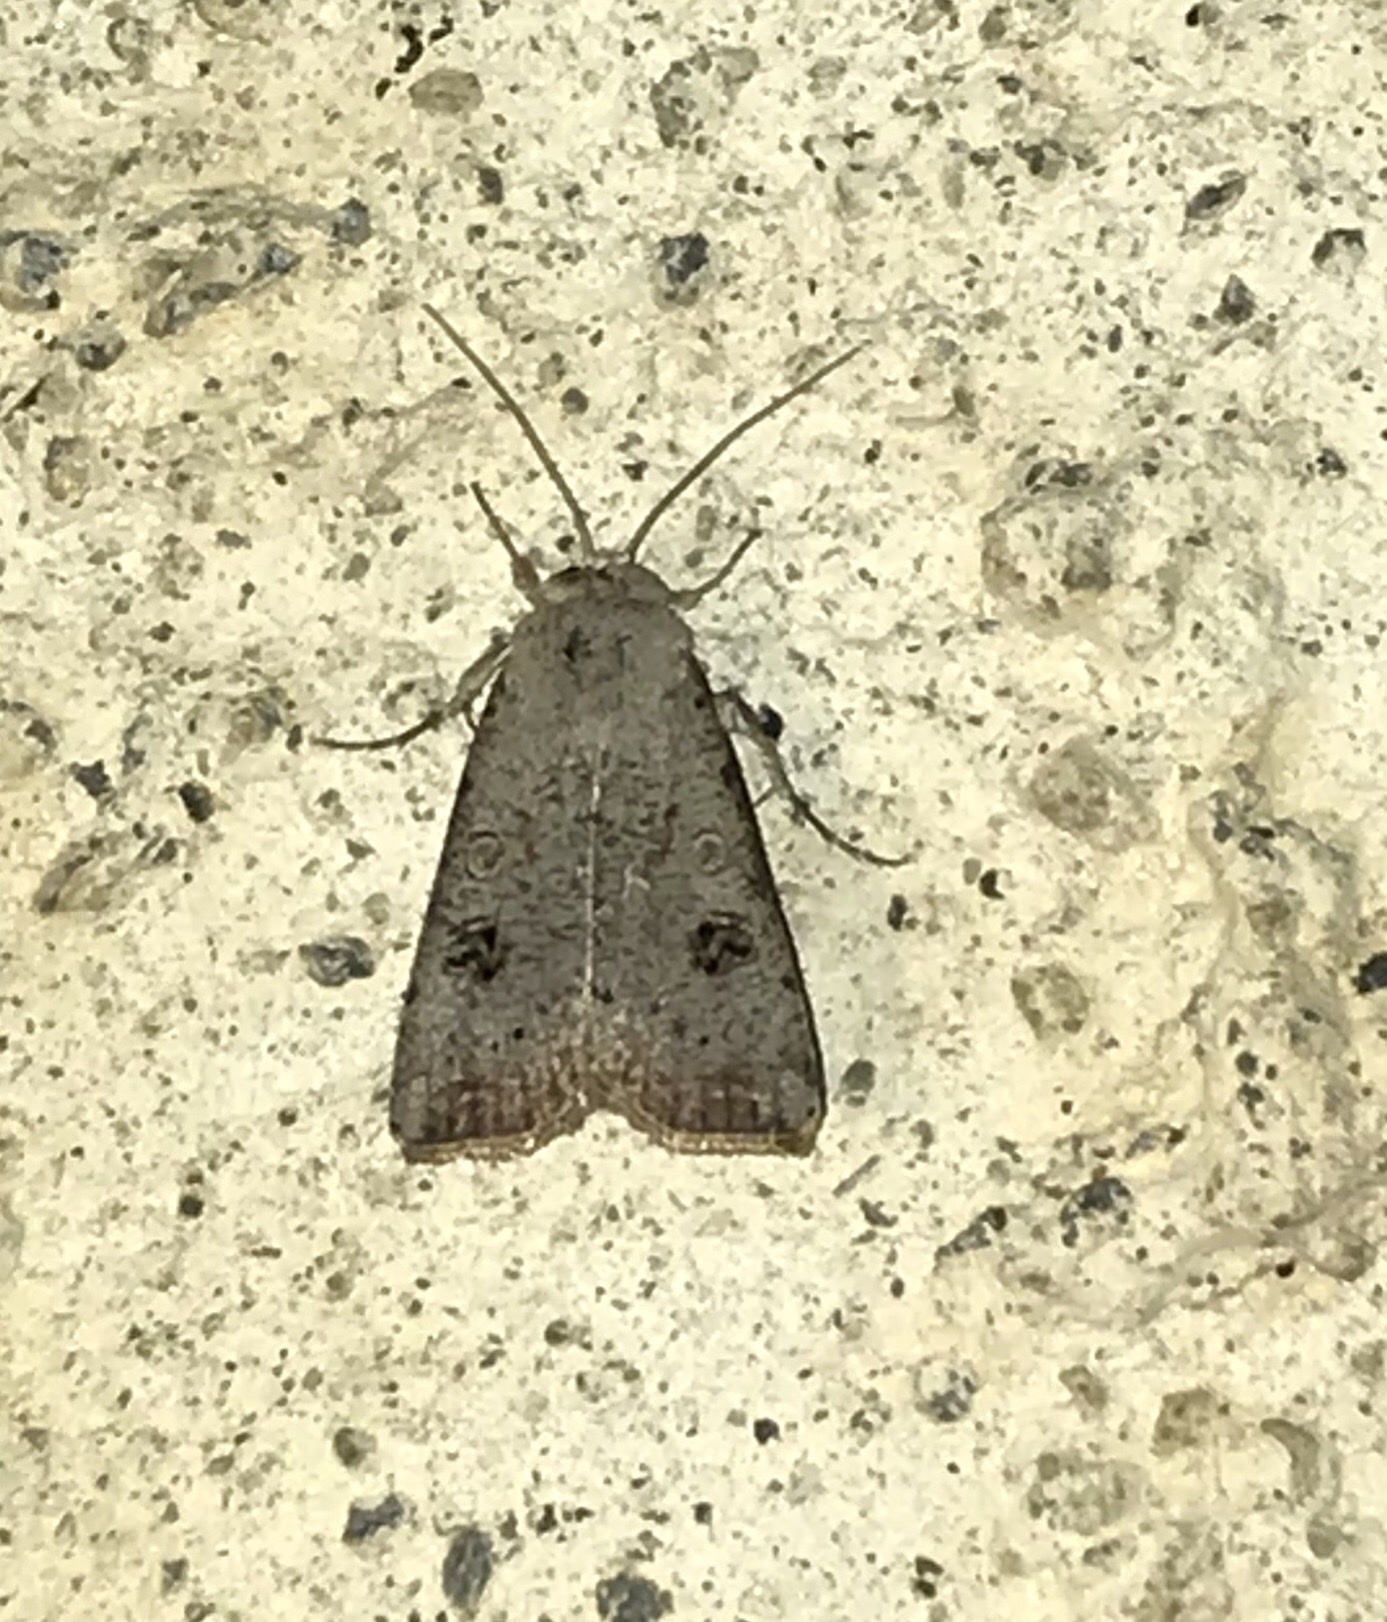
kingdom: Animalia
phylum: Arthropoda
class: Insecta
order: Lepidoptera
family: Noctuidae
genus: Anicla
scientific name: Anicla infecta
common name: Green cutworm
